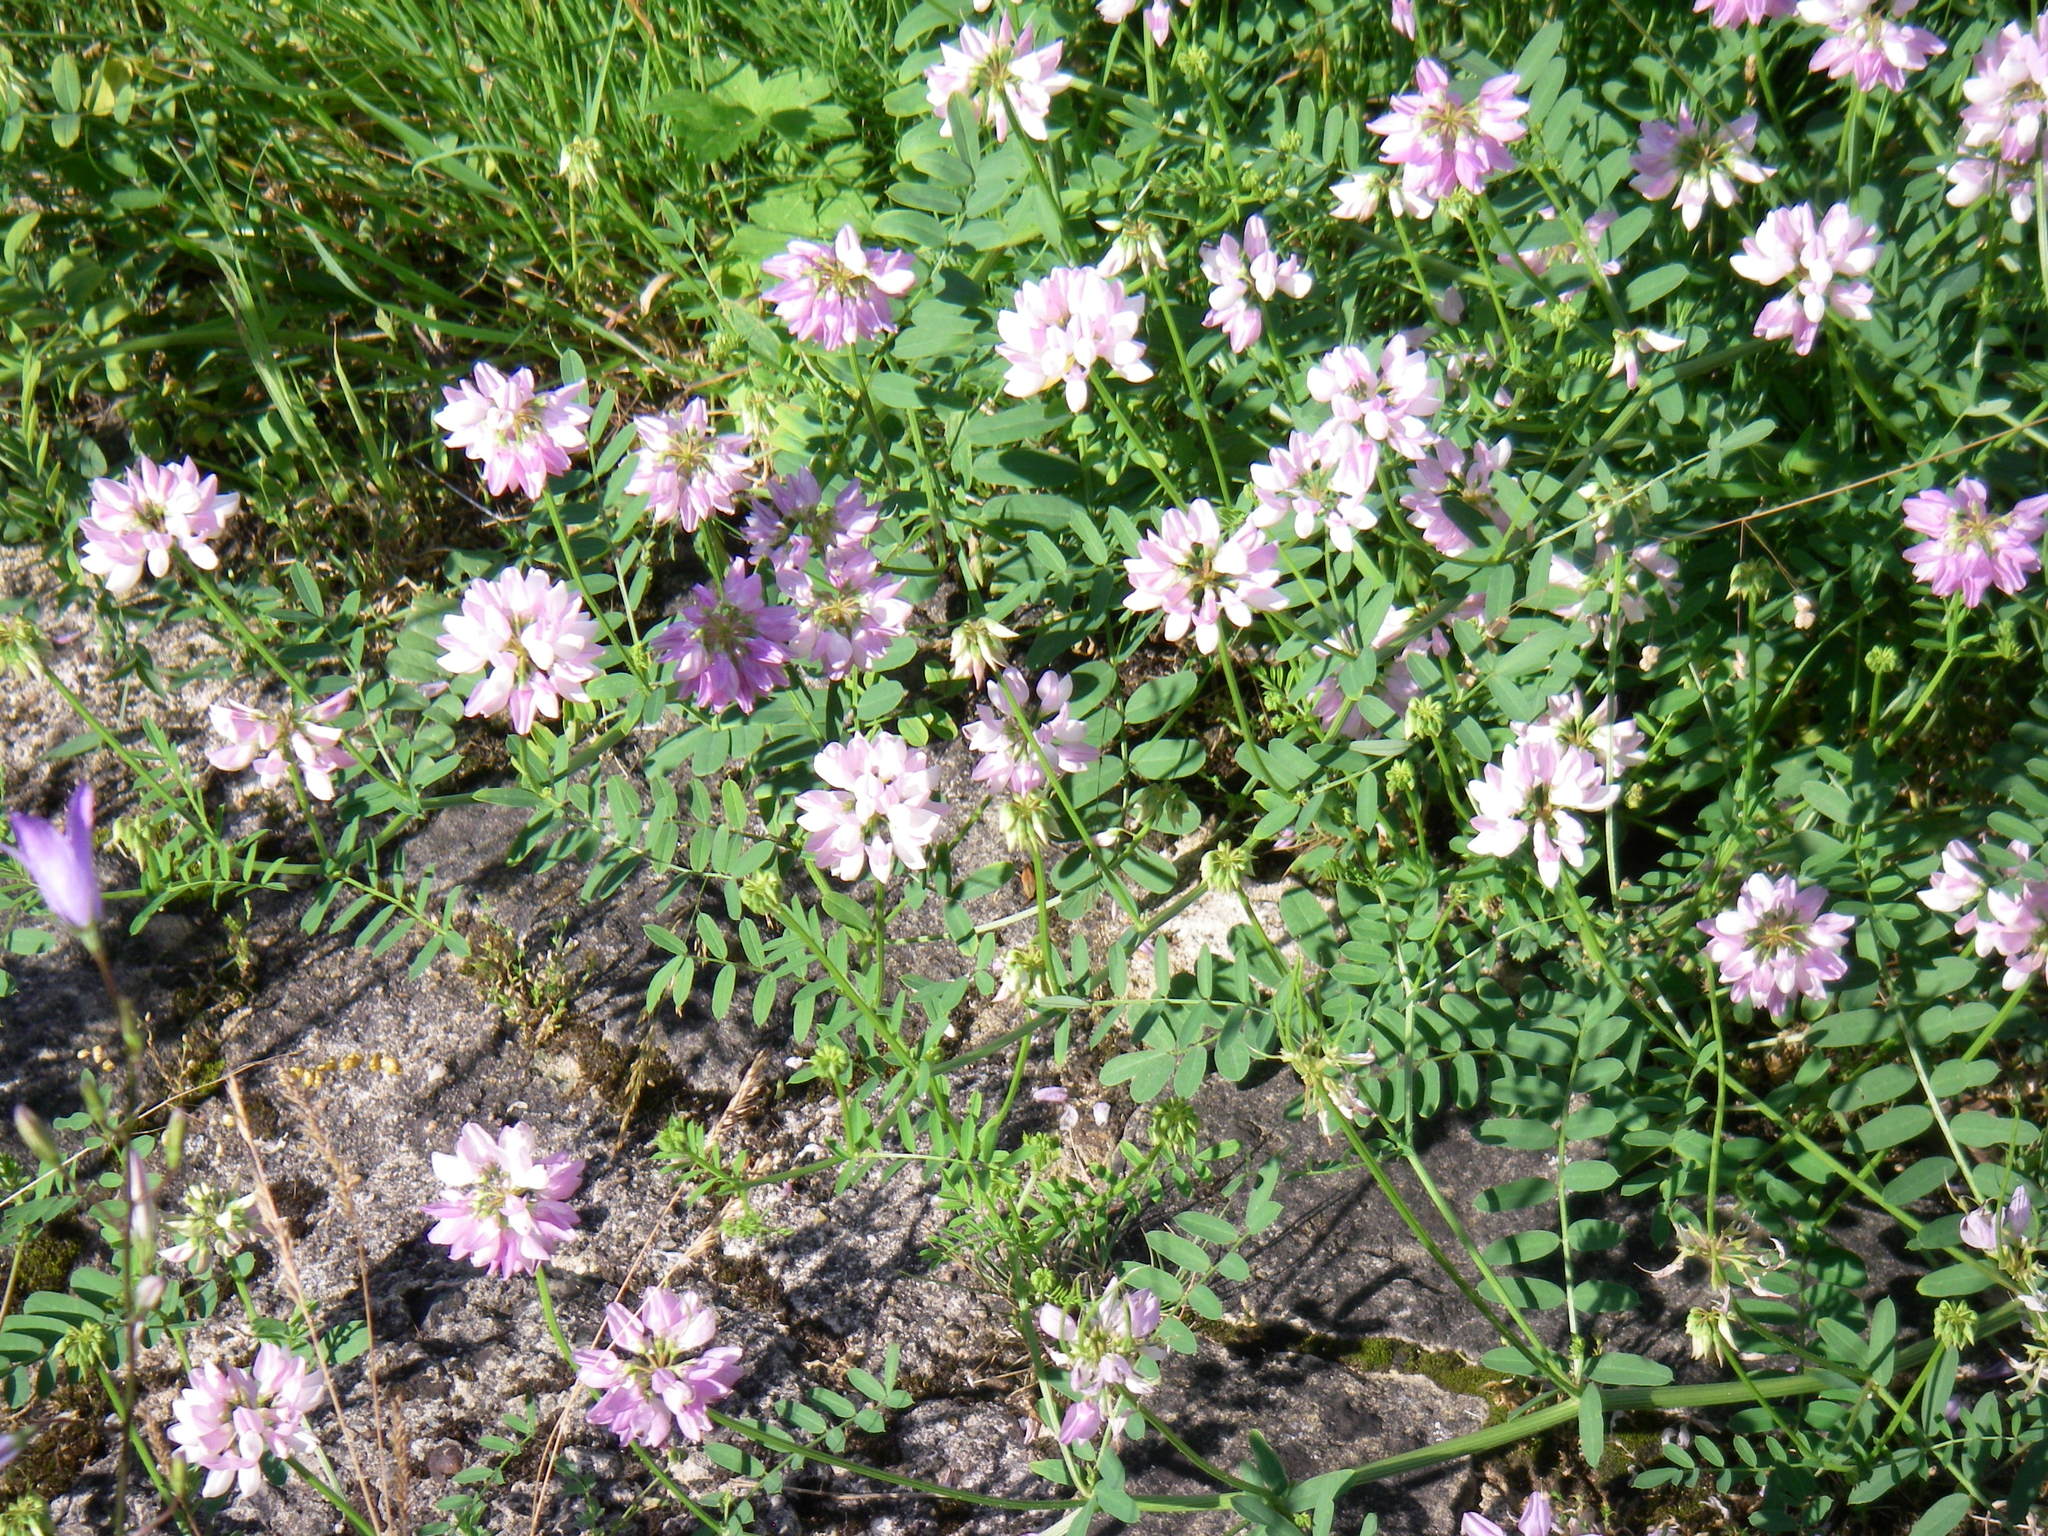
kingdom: Plantae
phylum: Tracheophyta
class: Magnoliopsida
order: Fabales
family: Fabaceae
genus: Coronilla
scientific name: Coronilla varia
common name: Crownvetch
